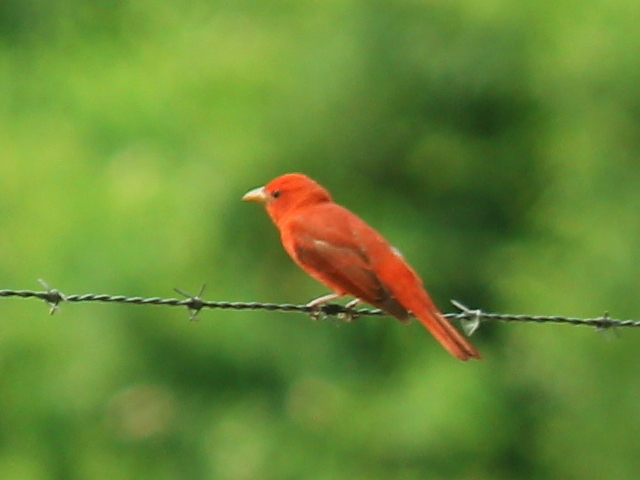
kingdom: Animalia
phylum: Chordata
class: Aves
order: Passeriformes
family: Cardinalidae
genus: Piranga
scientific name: Piranga rubra
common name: Summer tanager
